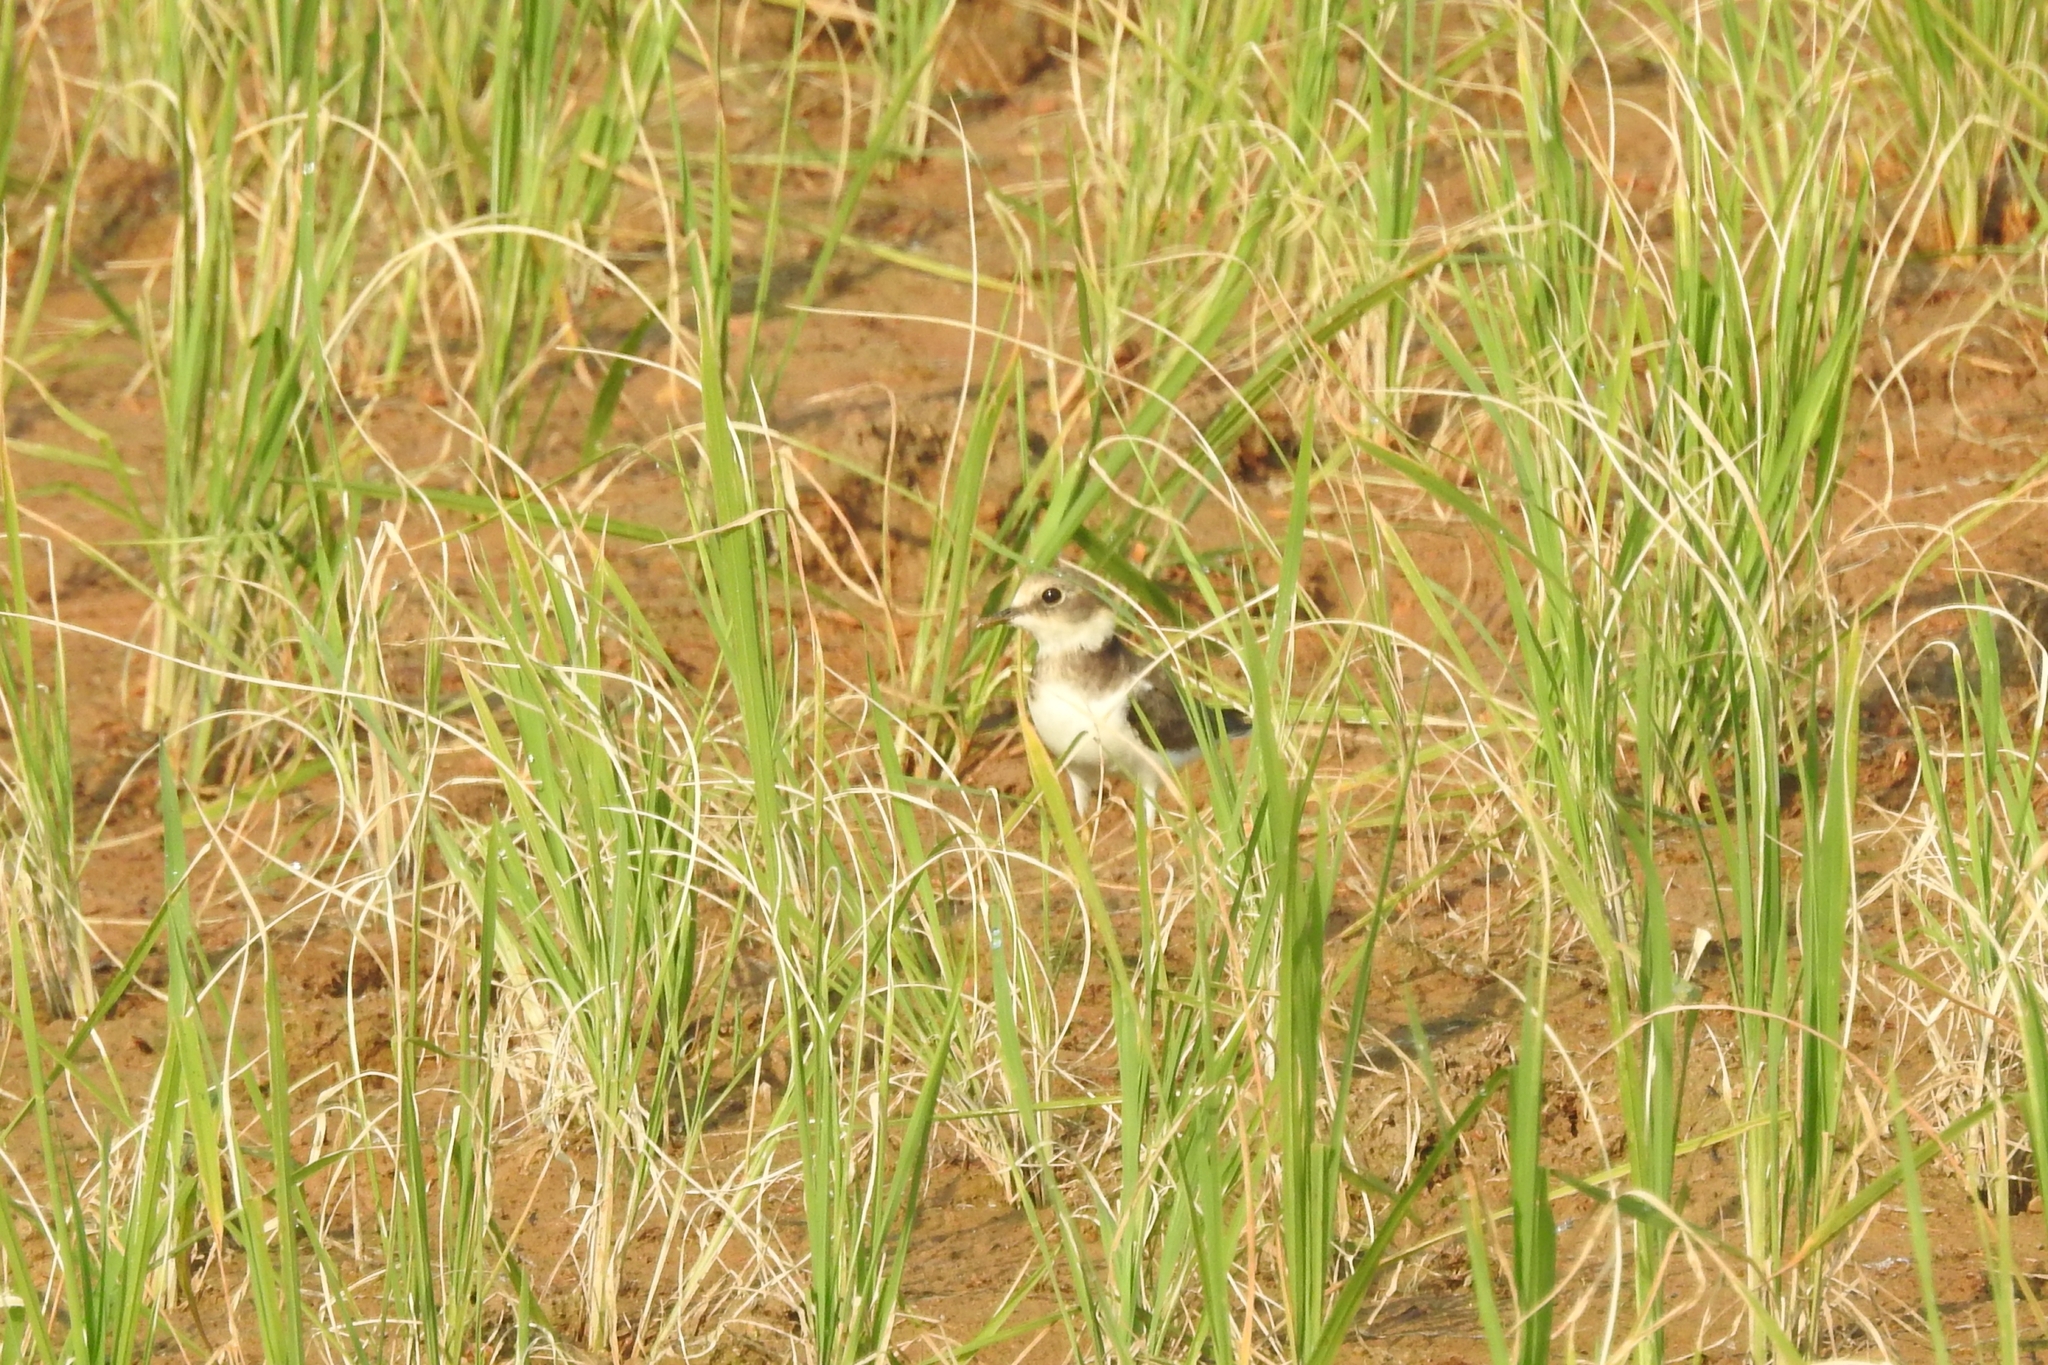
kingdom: Animalia
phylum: Chordata
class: Aves
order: Charadriiformes
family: Charadriidae
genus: Charadrius
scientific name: Charadrius dubius
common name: Little ringed plover
